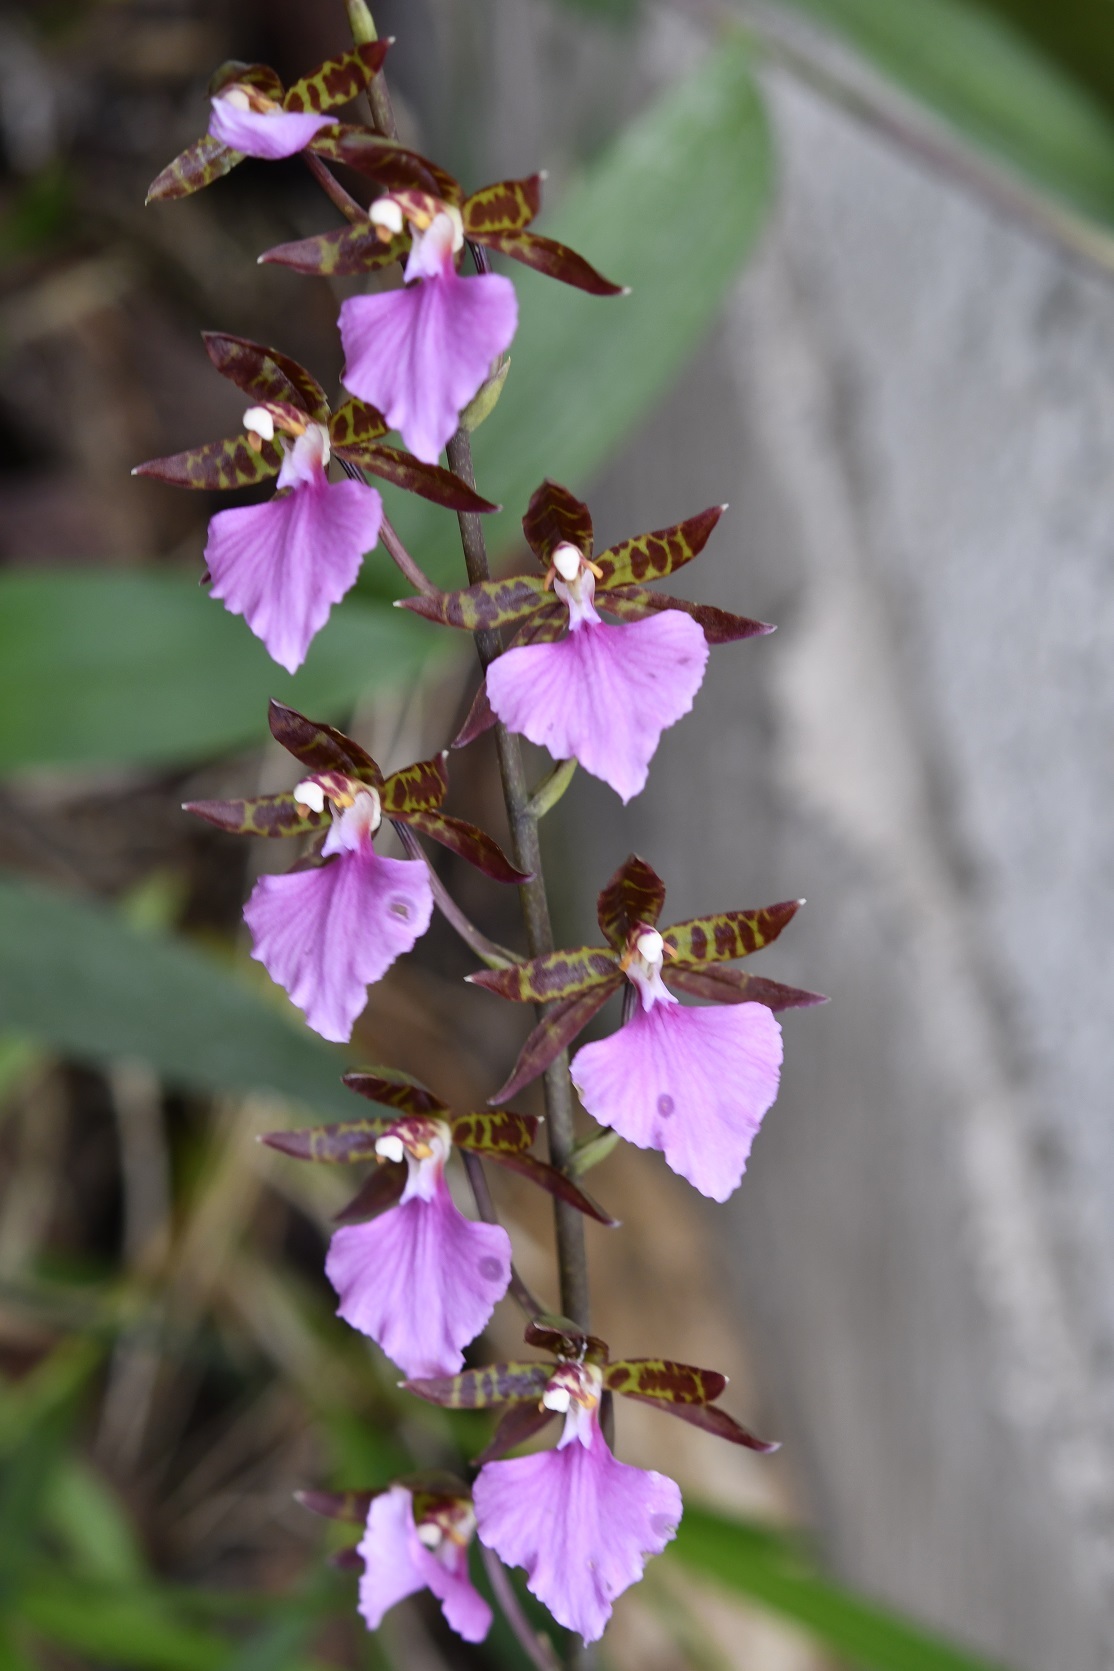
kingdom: Plantae
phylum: Tracheophyta
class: Liliopsida
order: Asparagales
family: Orchidaceae
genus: Rhynchostele
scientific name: Rhynchostele bictoniensis
